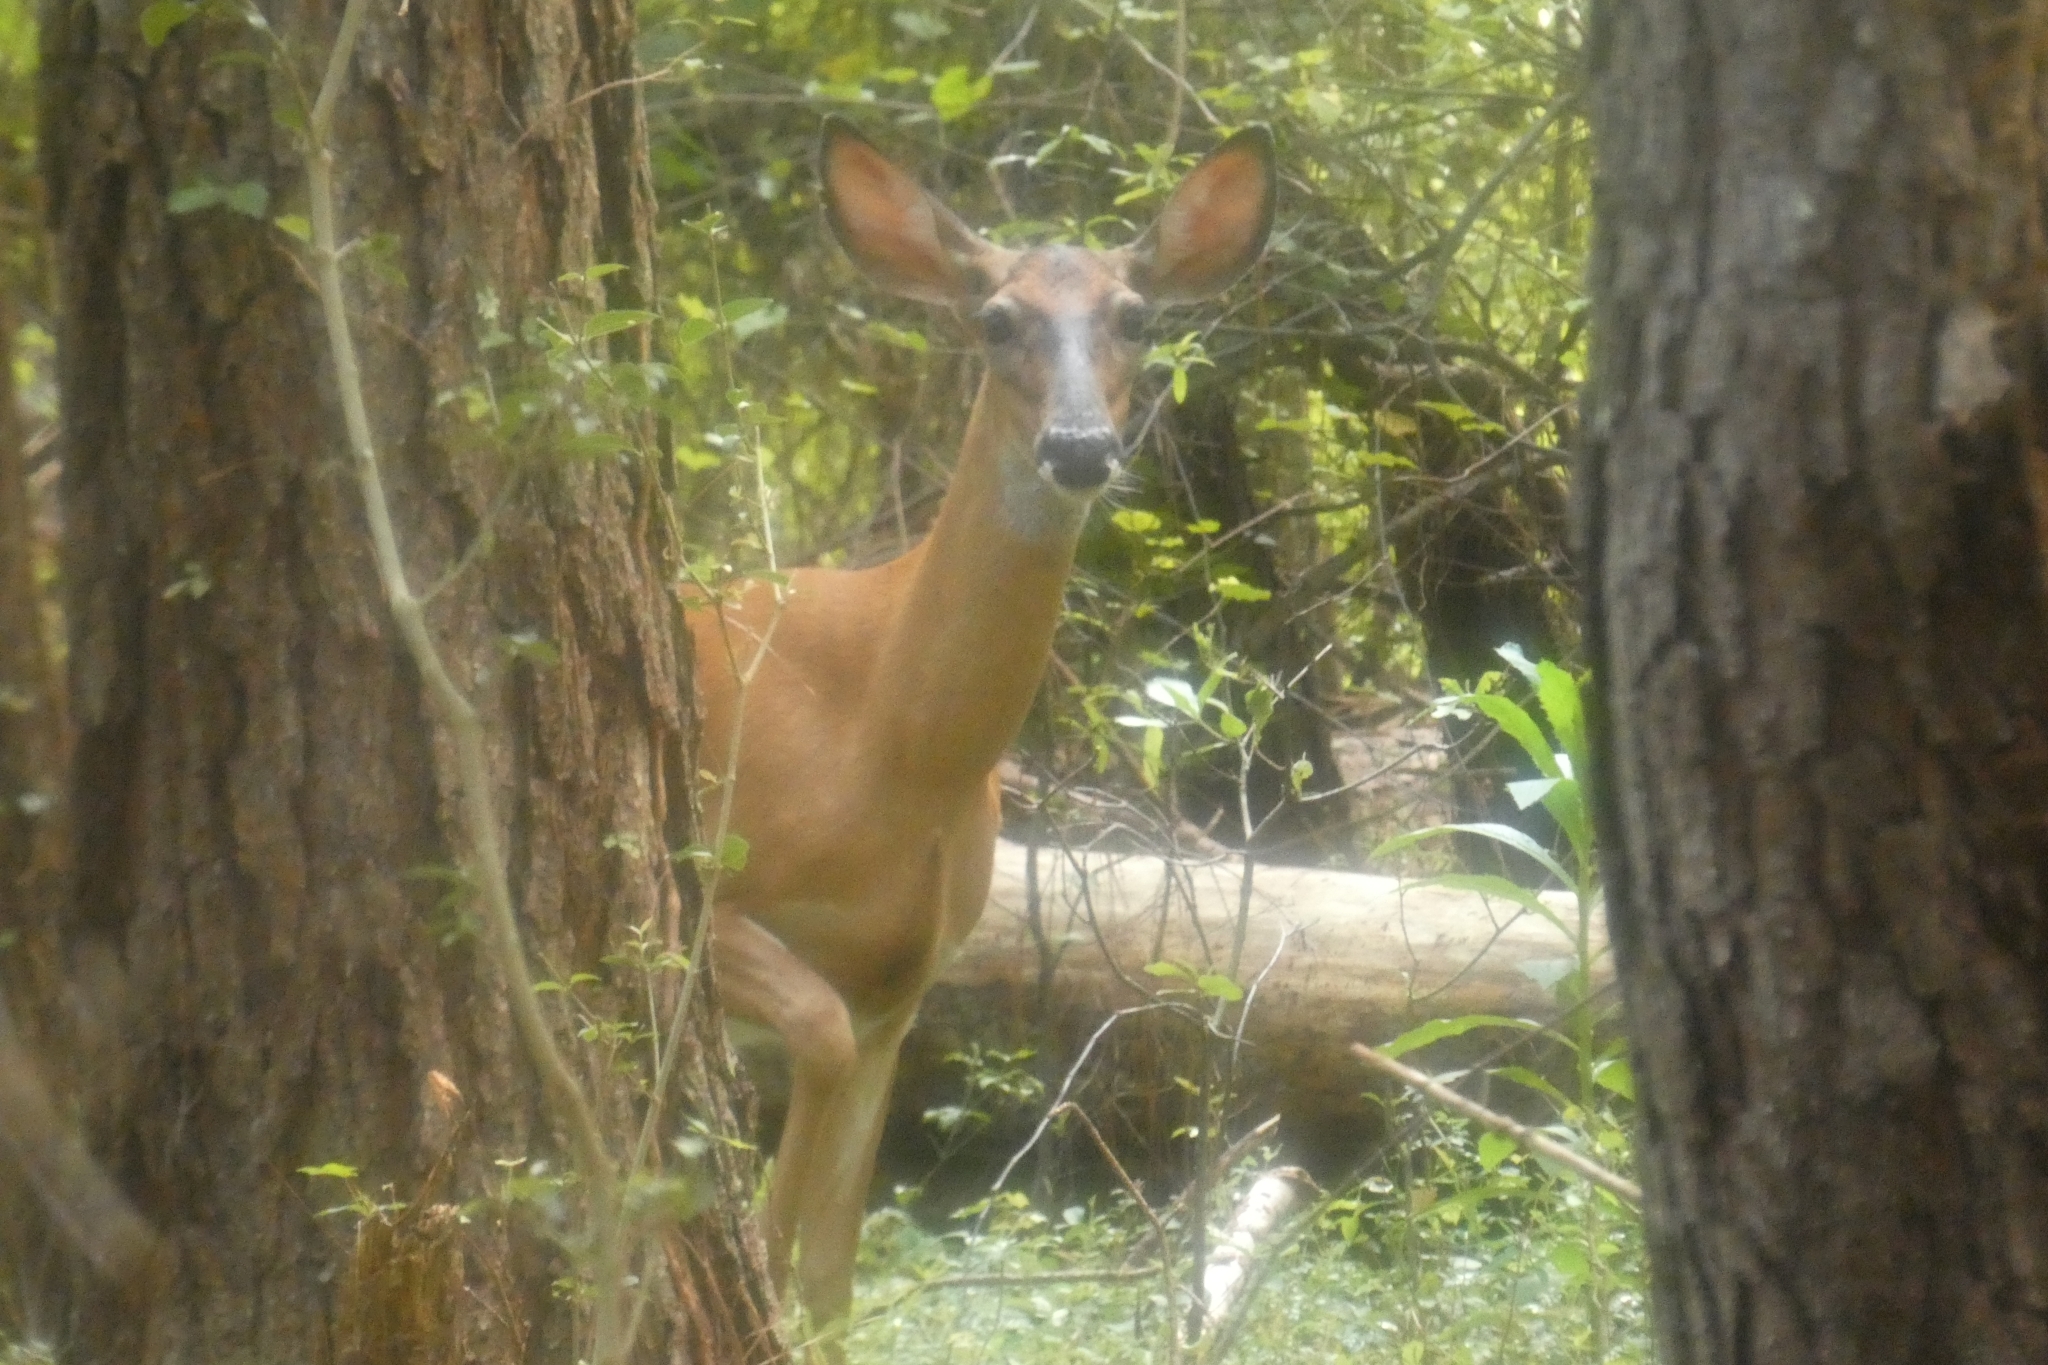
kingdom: Animalia
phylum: Chordata
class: Mammalia
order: Artiodactyla
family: Cervidae
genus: Odocoileus
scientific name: Odocoileus virginianus
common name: White-tailed deer
